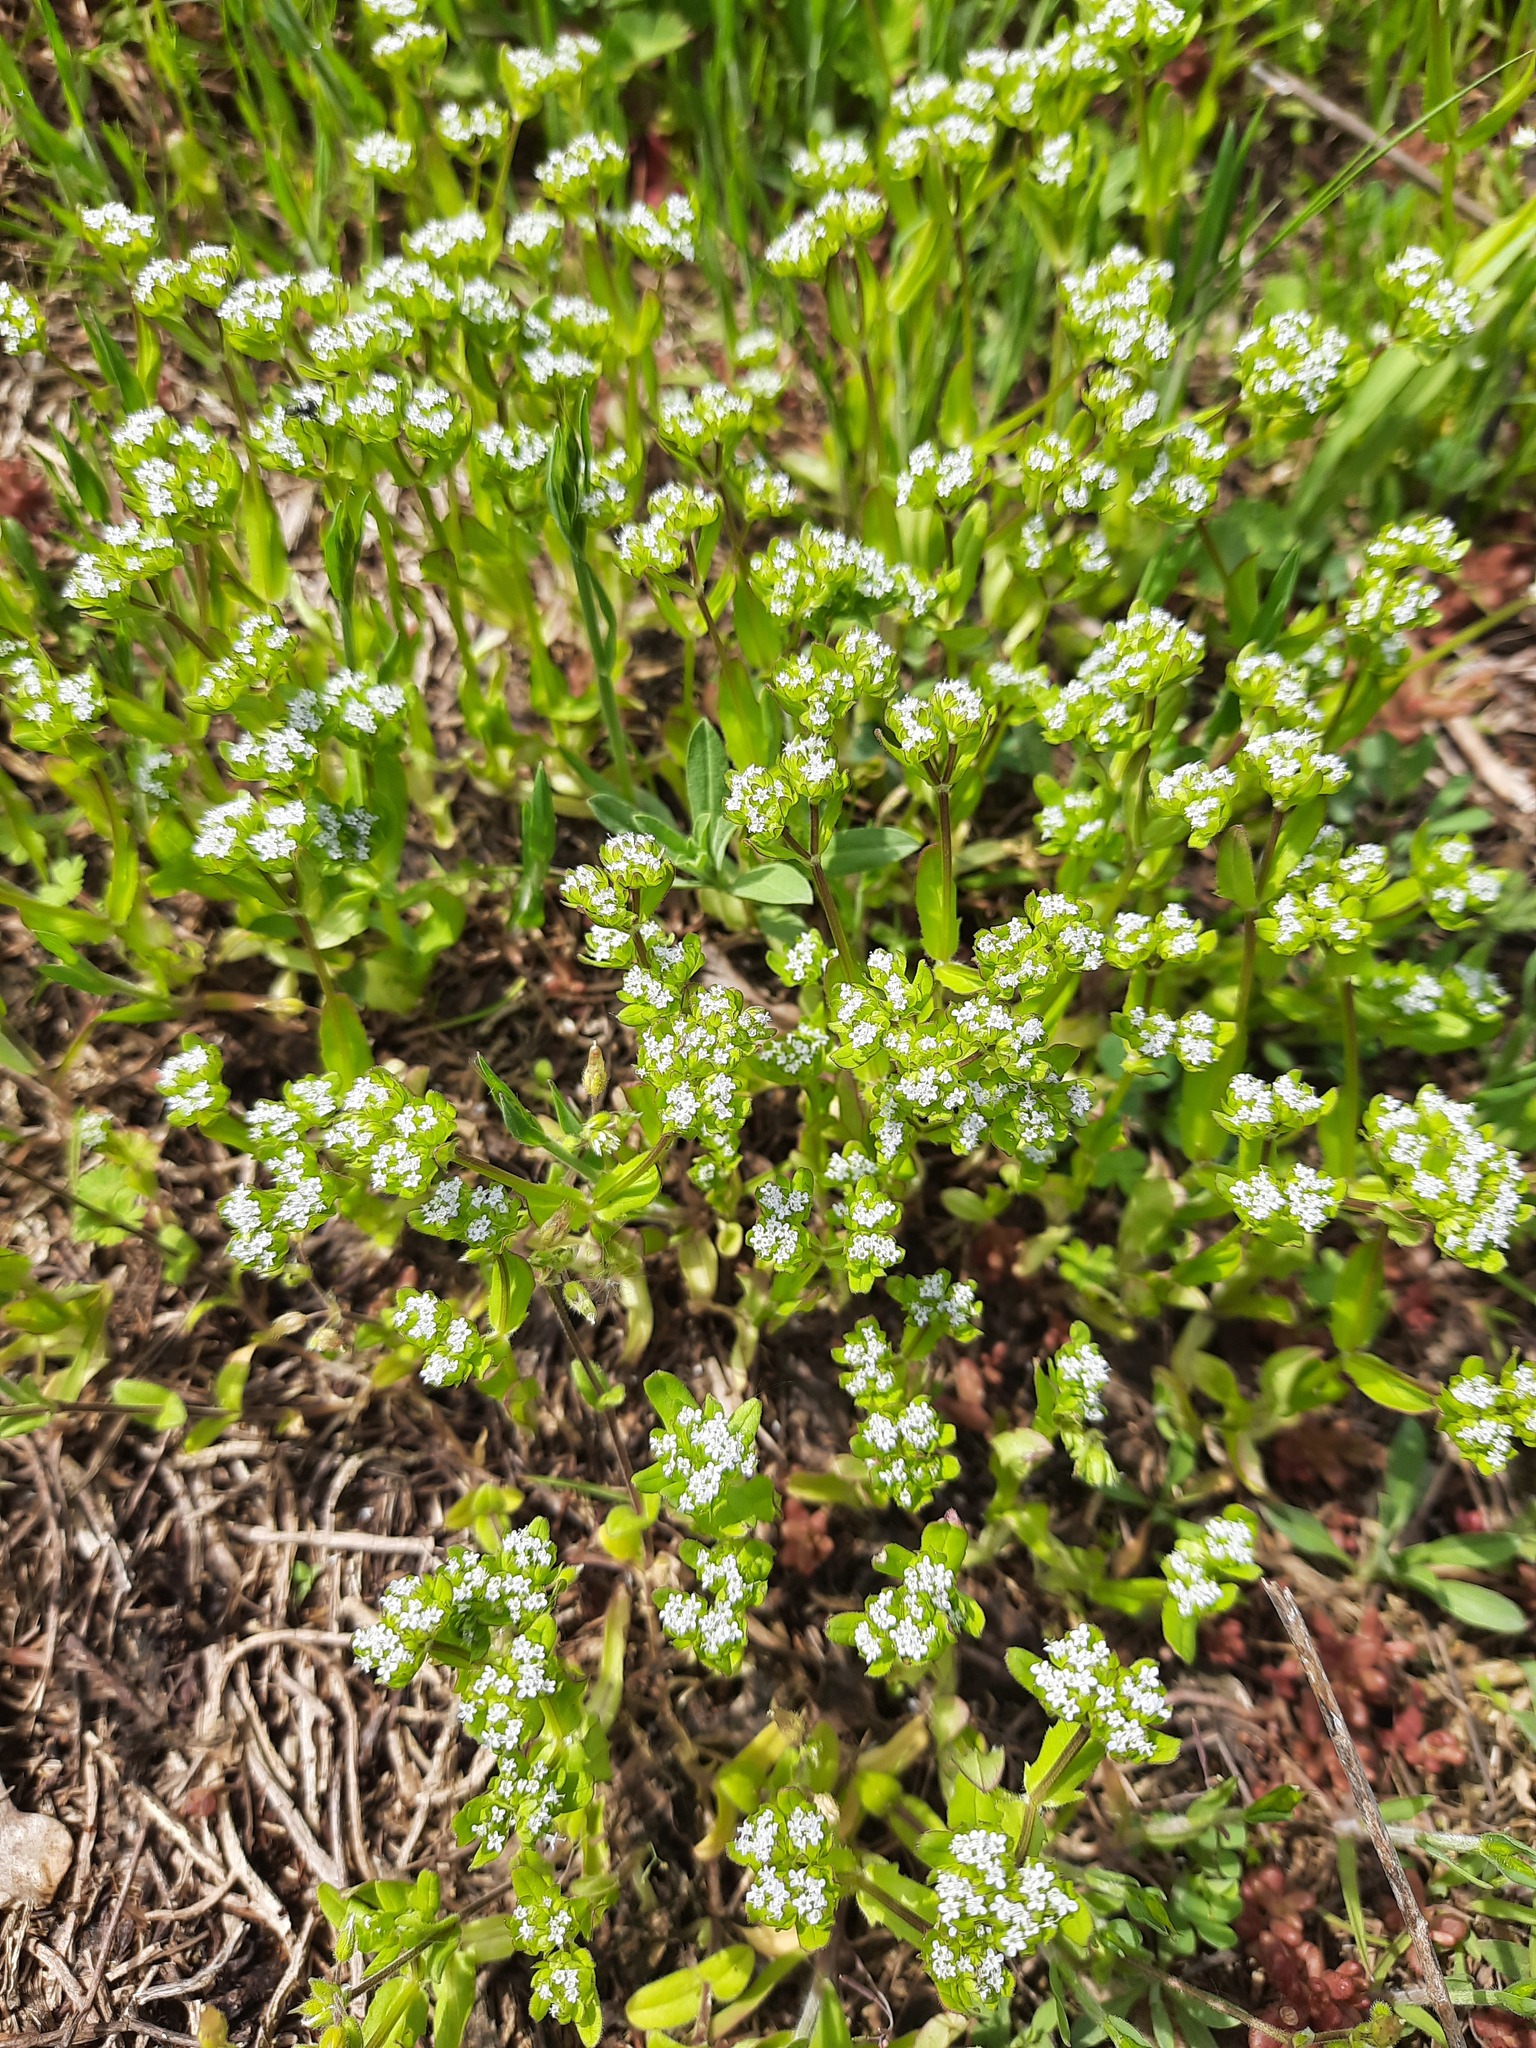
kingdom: Plantae
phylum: Tracheophyta
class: Magnoliopsida
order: Dipsacales
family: Caprifoliaceae
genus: Valerianella
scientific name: Valerianella locusta
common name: Common cornsalad
